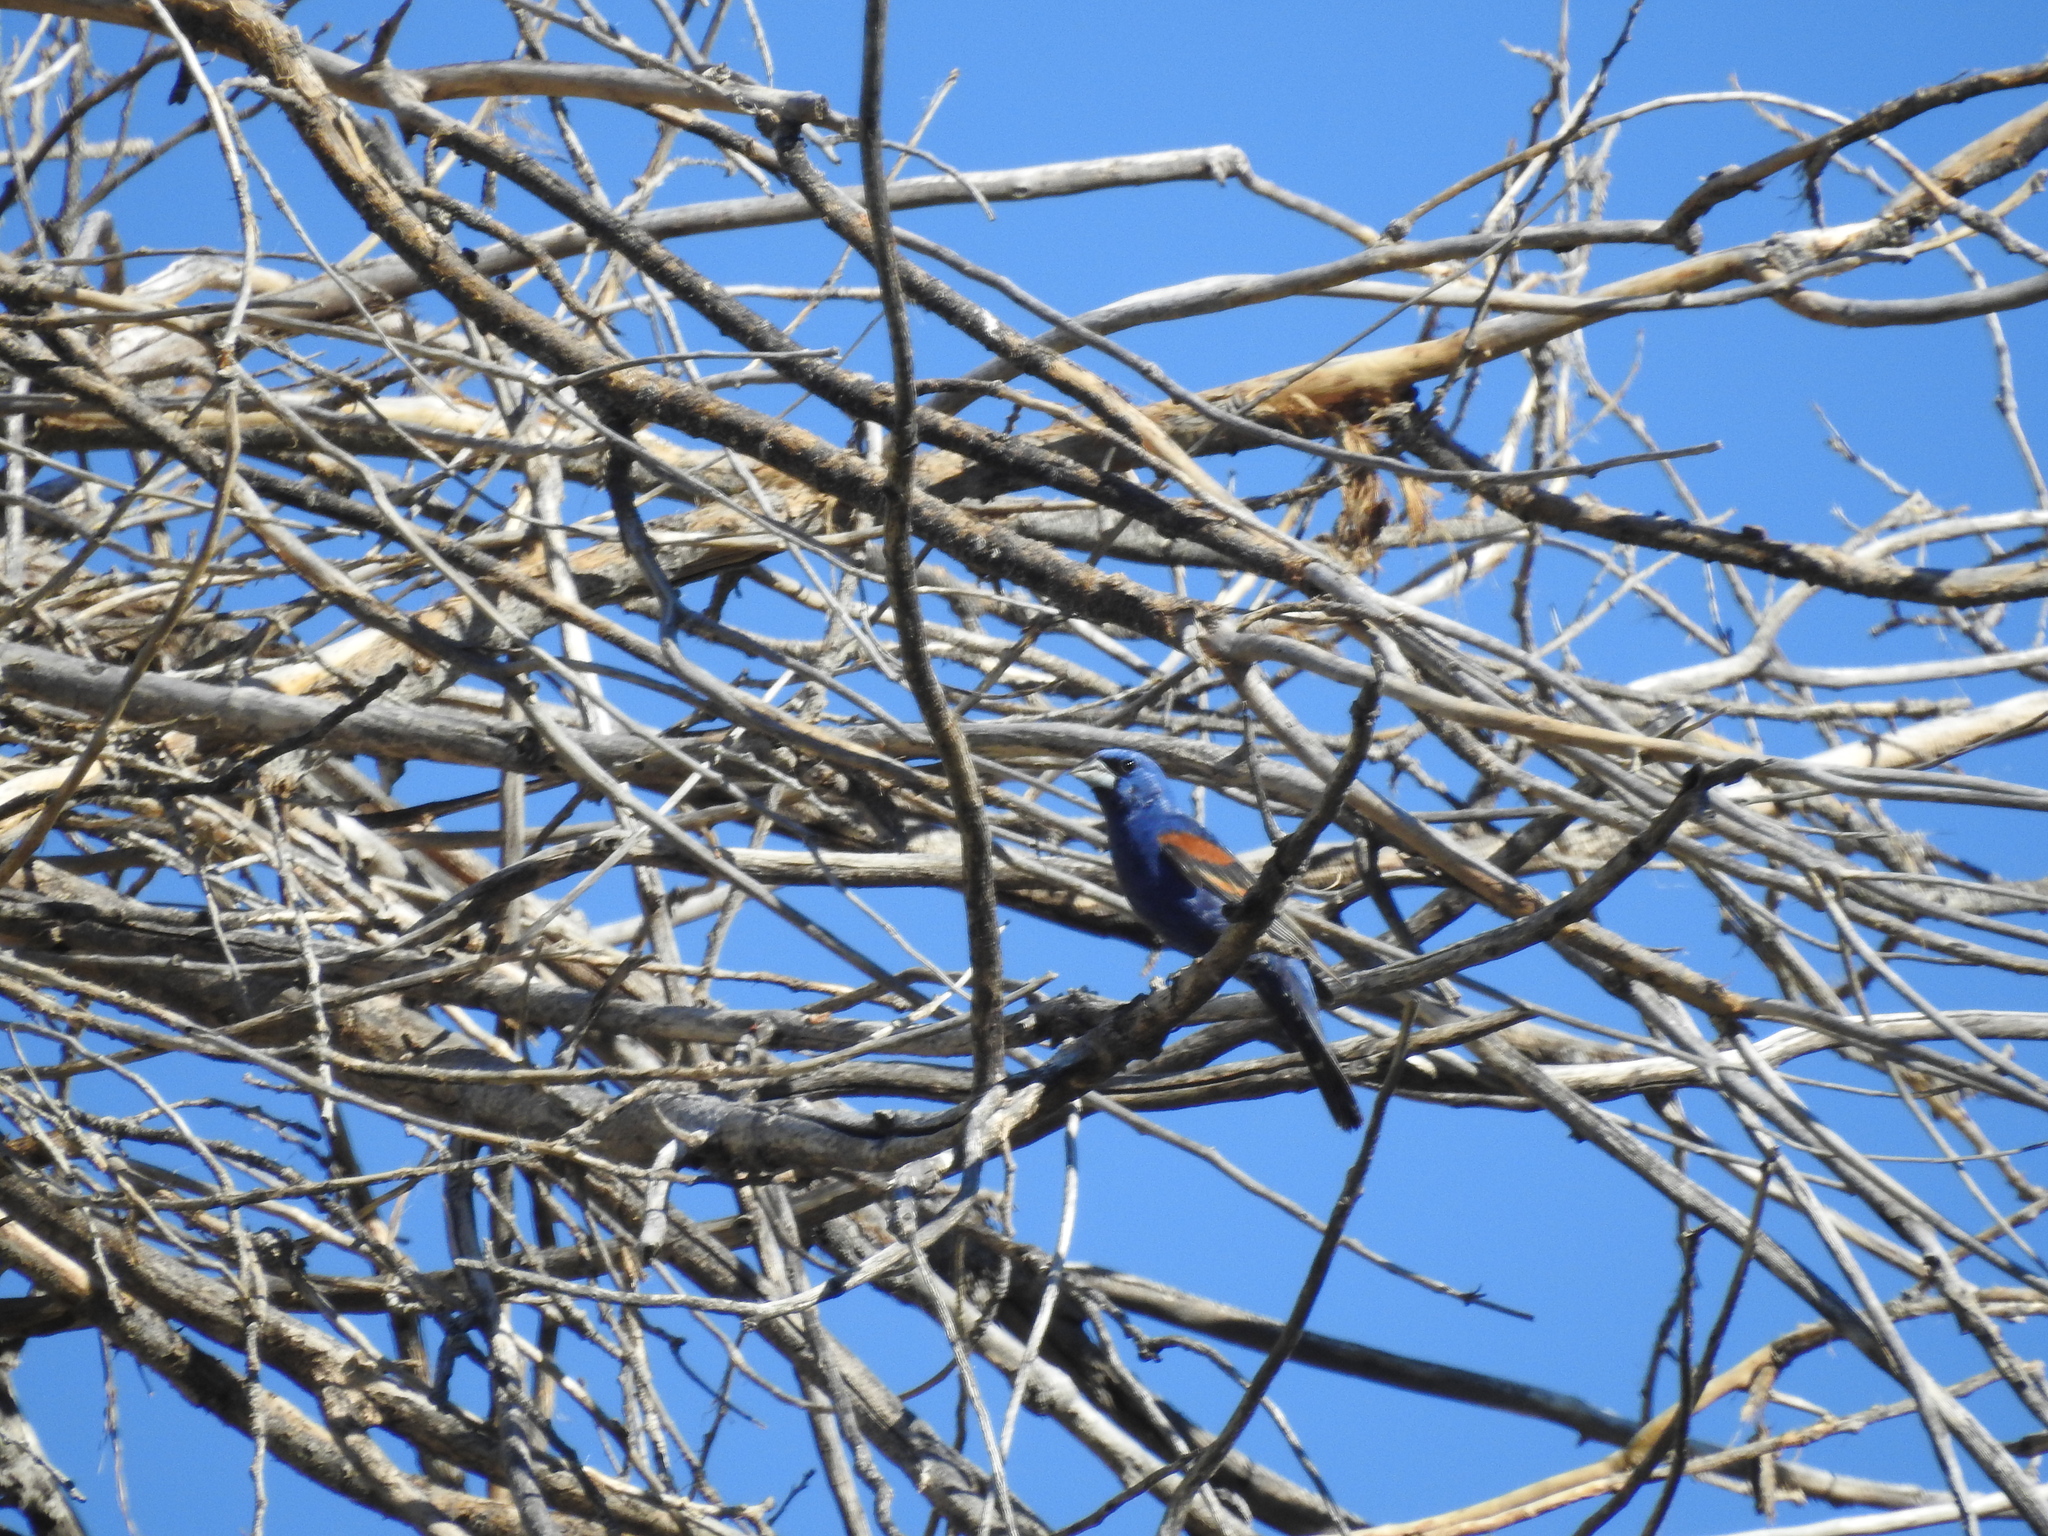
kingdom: Animalia
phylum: Chordata
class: Aves
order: Passeriformes
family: Cardinalidae
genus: Passerina
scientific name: Passerina caerulea
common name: Blue grosbeak
